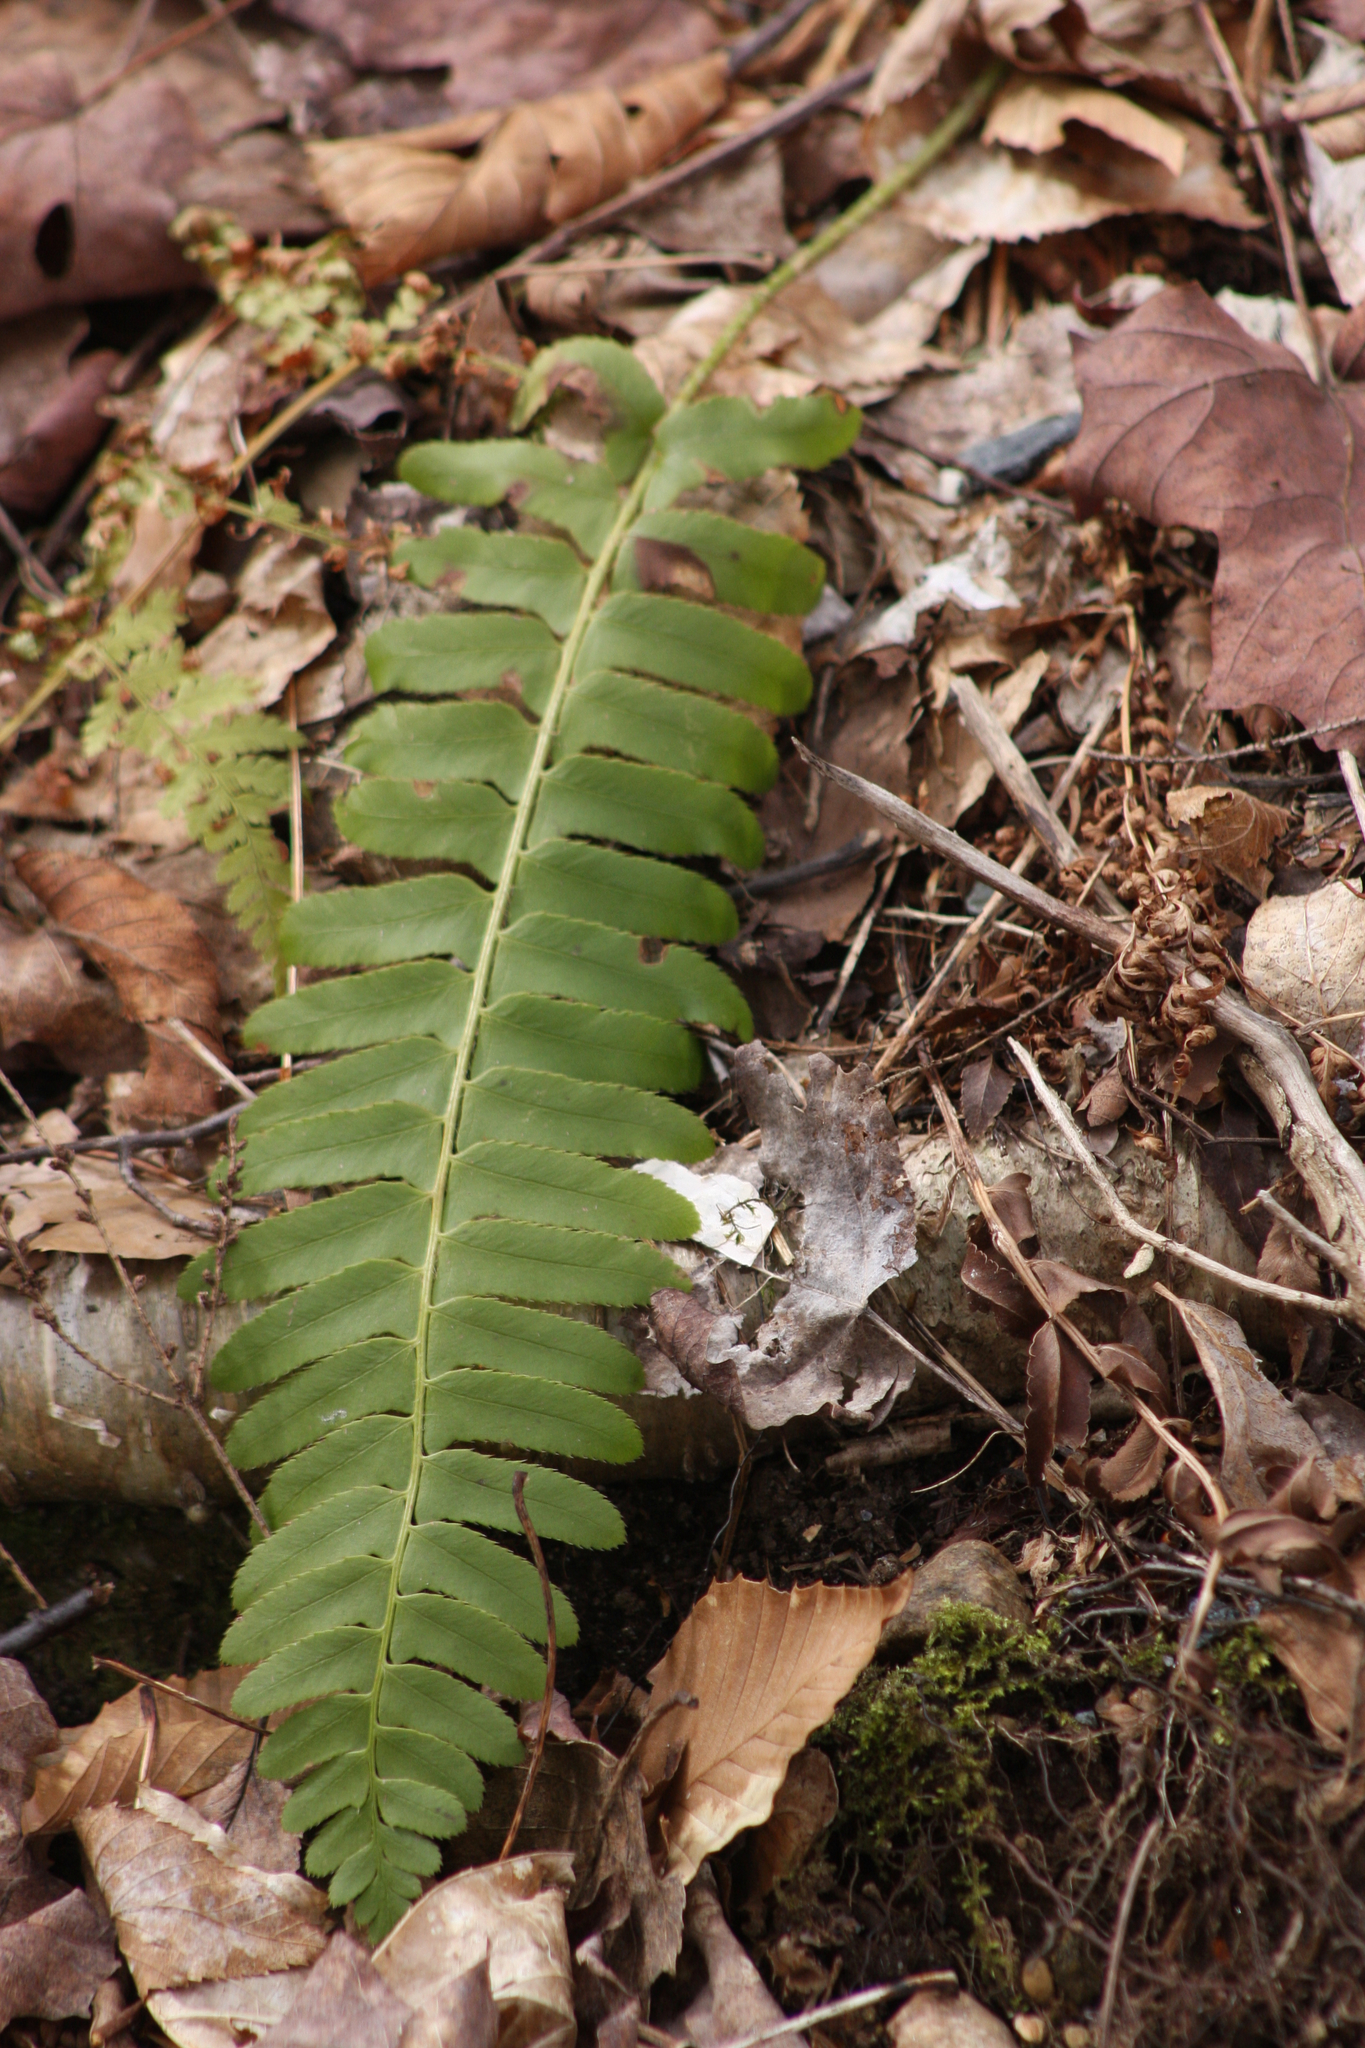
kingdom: Plantae
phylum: Tracheophyta
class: Polypodiopsida
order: Polypodiales
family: Dryopteridaceae
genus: Polystichum
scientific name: Polystichum acrostichoides
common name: Christmas fern
